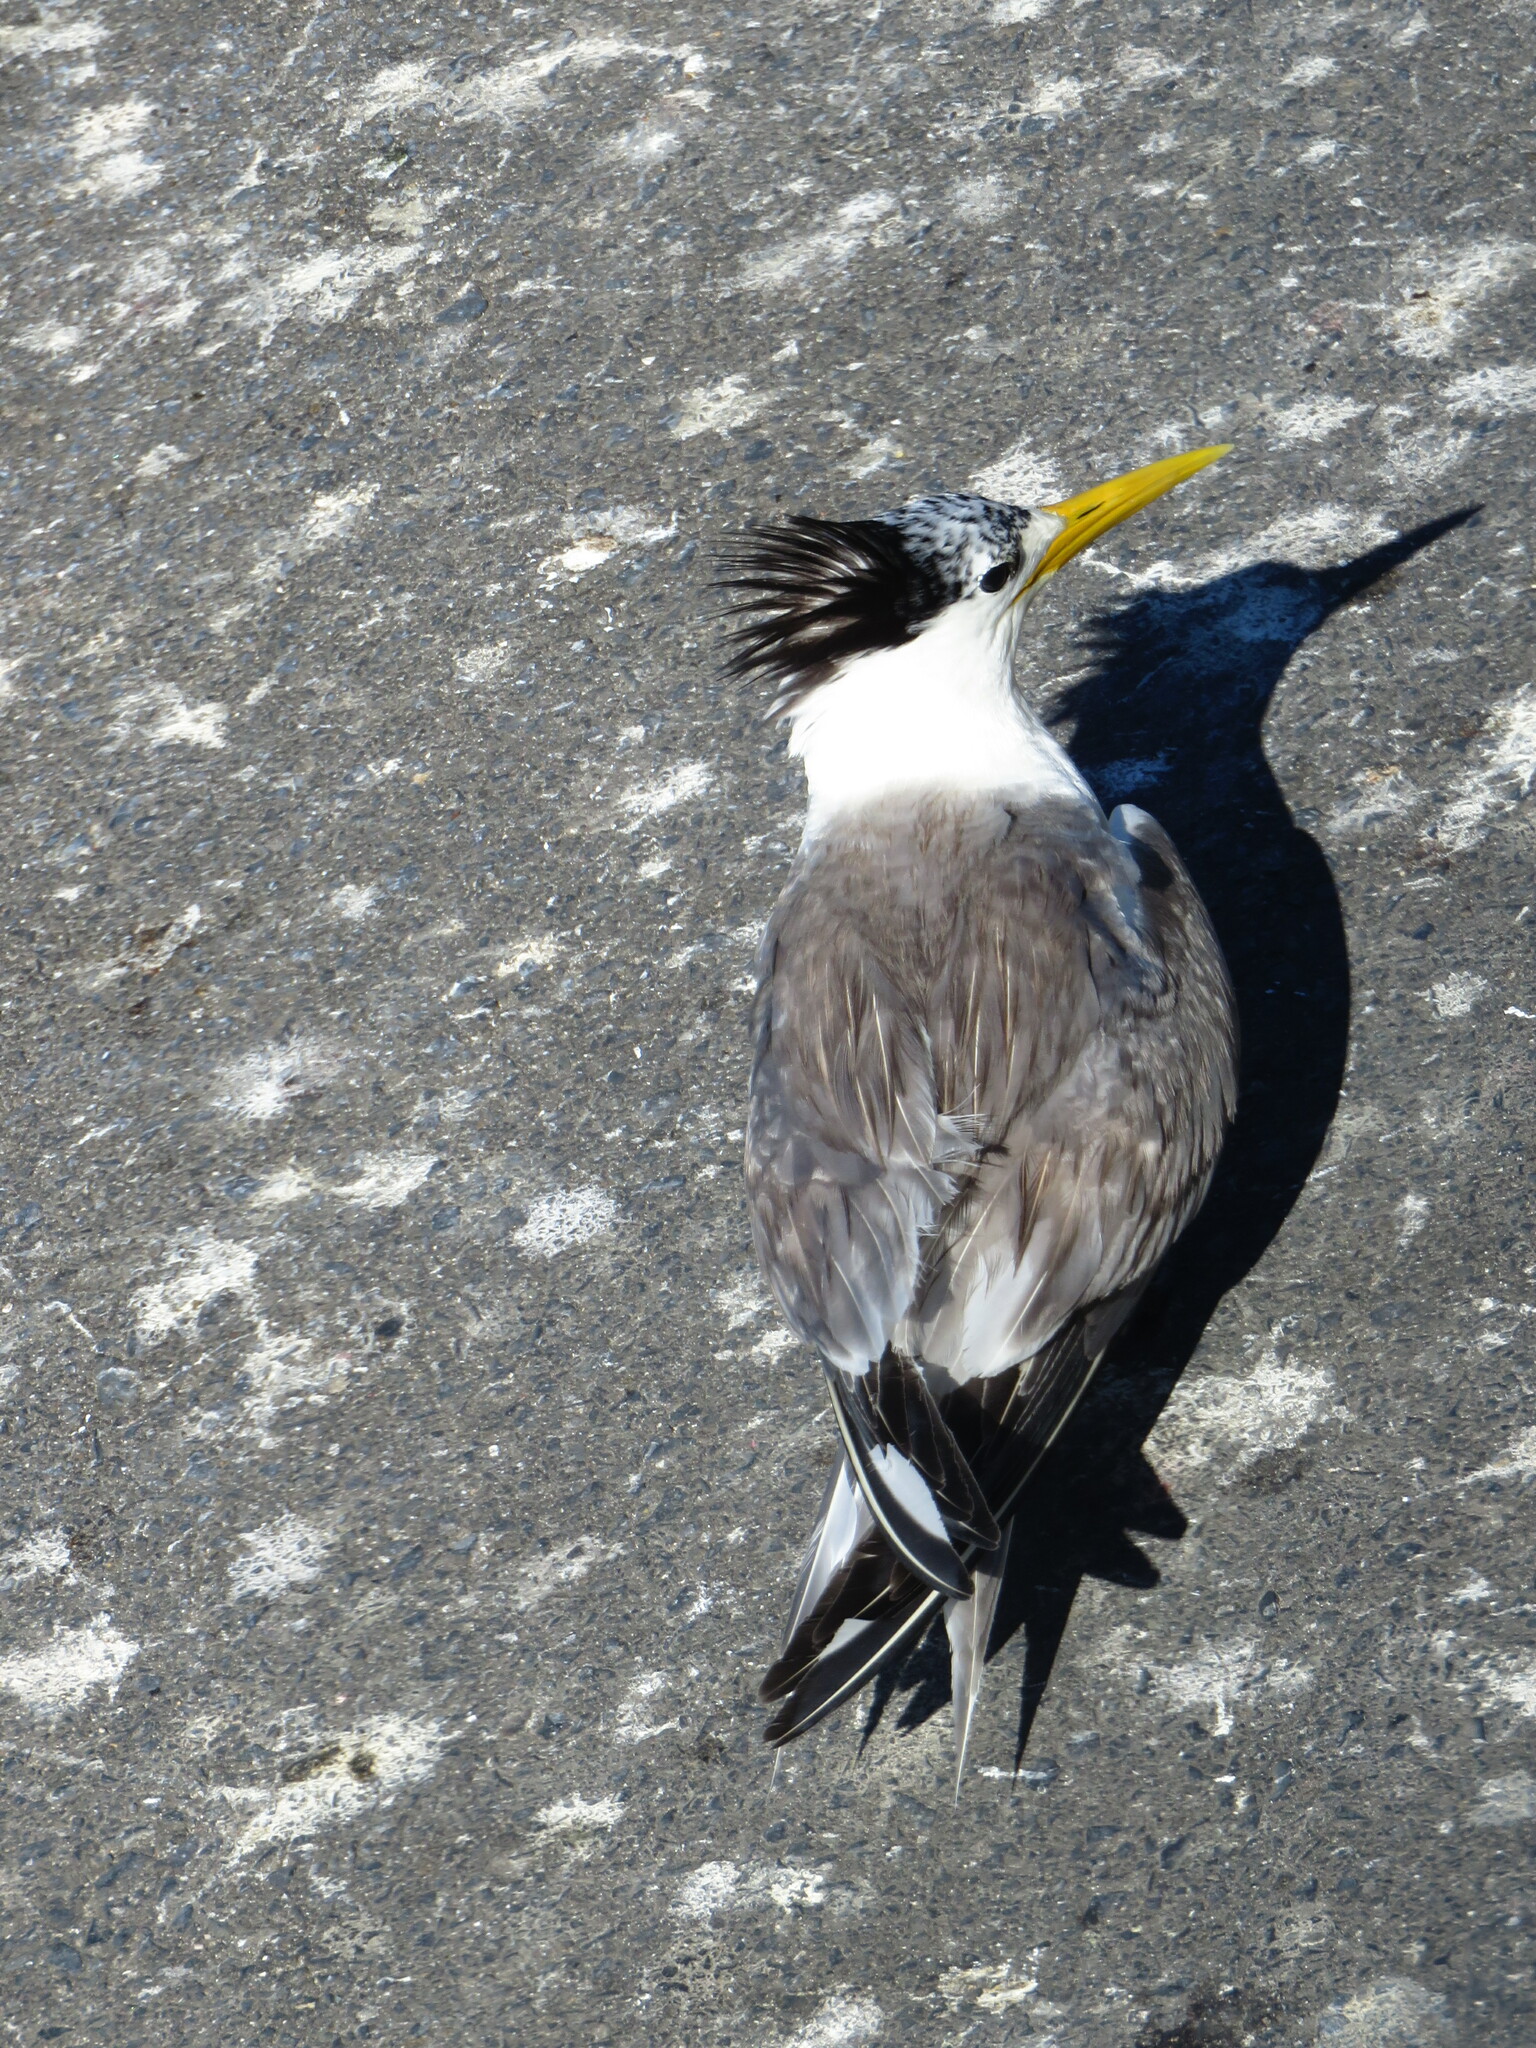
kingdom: Animalia
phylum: Chordata
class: Aves
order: Charadriiformes
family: Laridae
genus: Thalasseus
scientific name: Thalasseus bergii
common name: Greater crested tern
